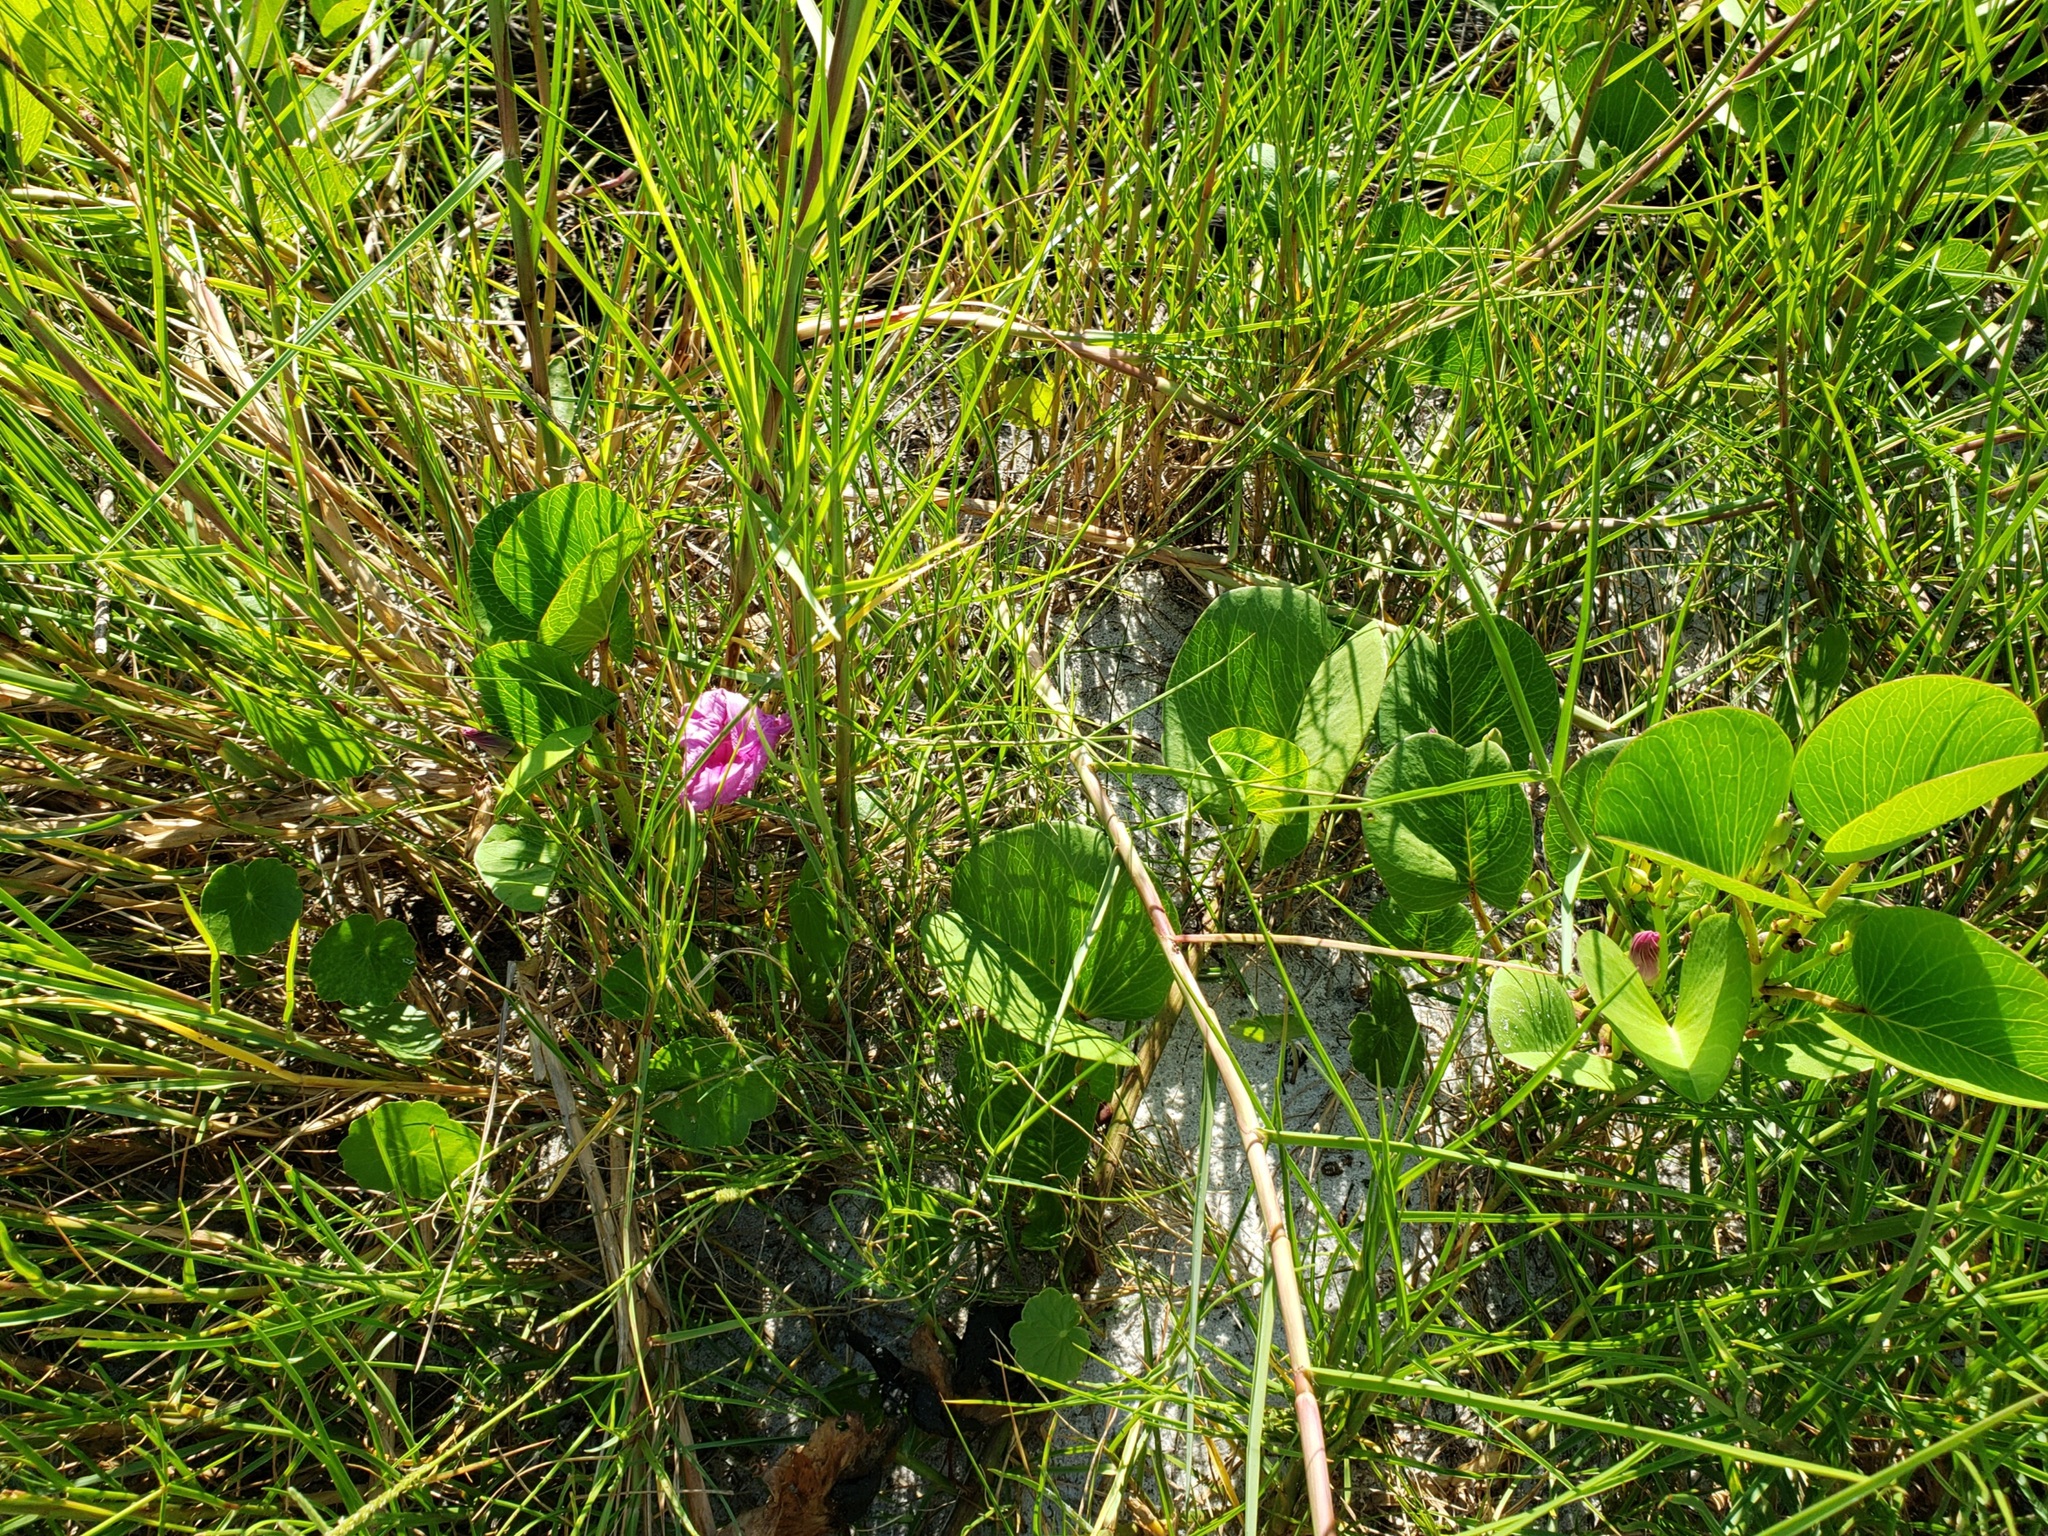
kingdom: Plantae
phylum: Tracheophyta
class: Magnoliopsida
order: Solanales
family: Convolvulaceae
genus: Ipomoea
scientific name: Ipomoea pes-caprae
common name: Beach morning glory
